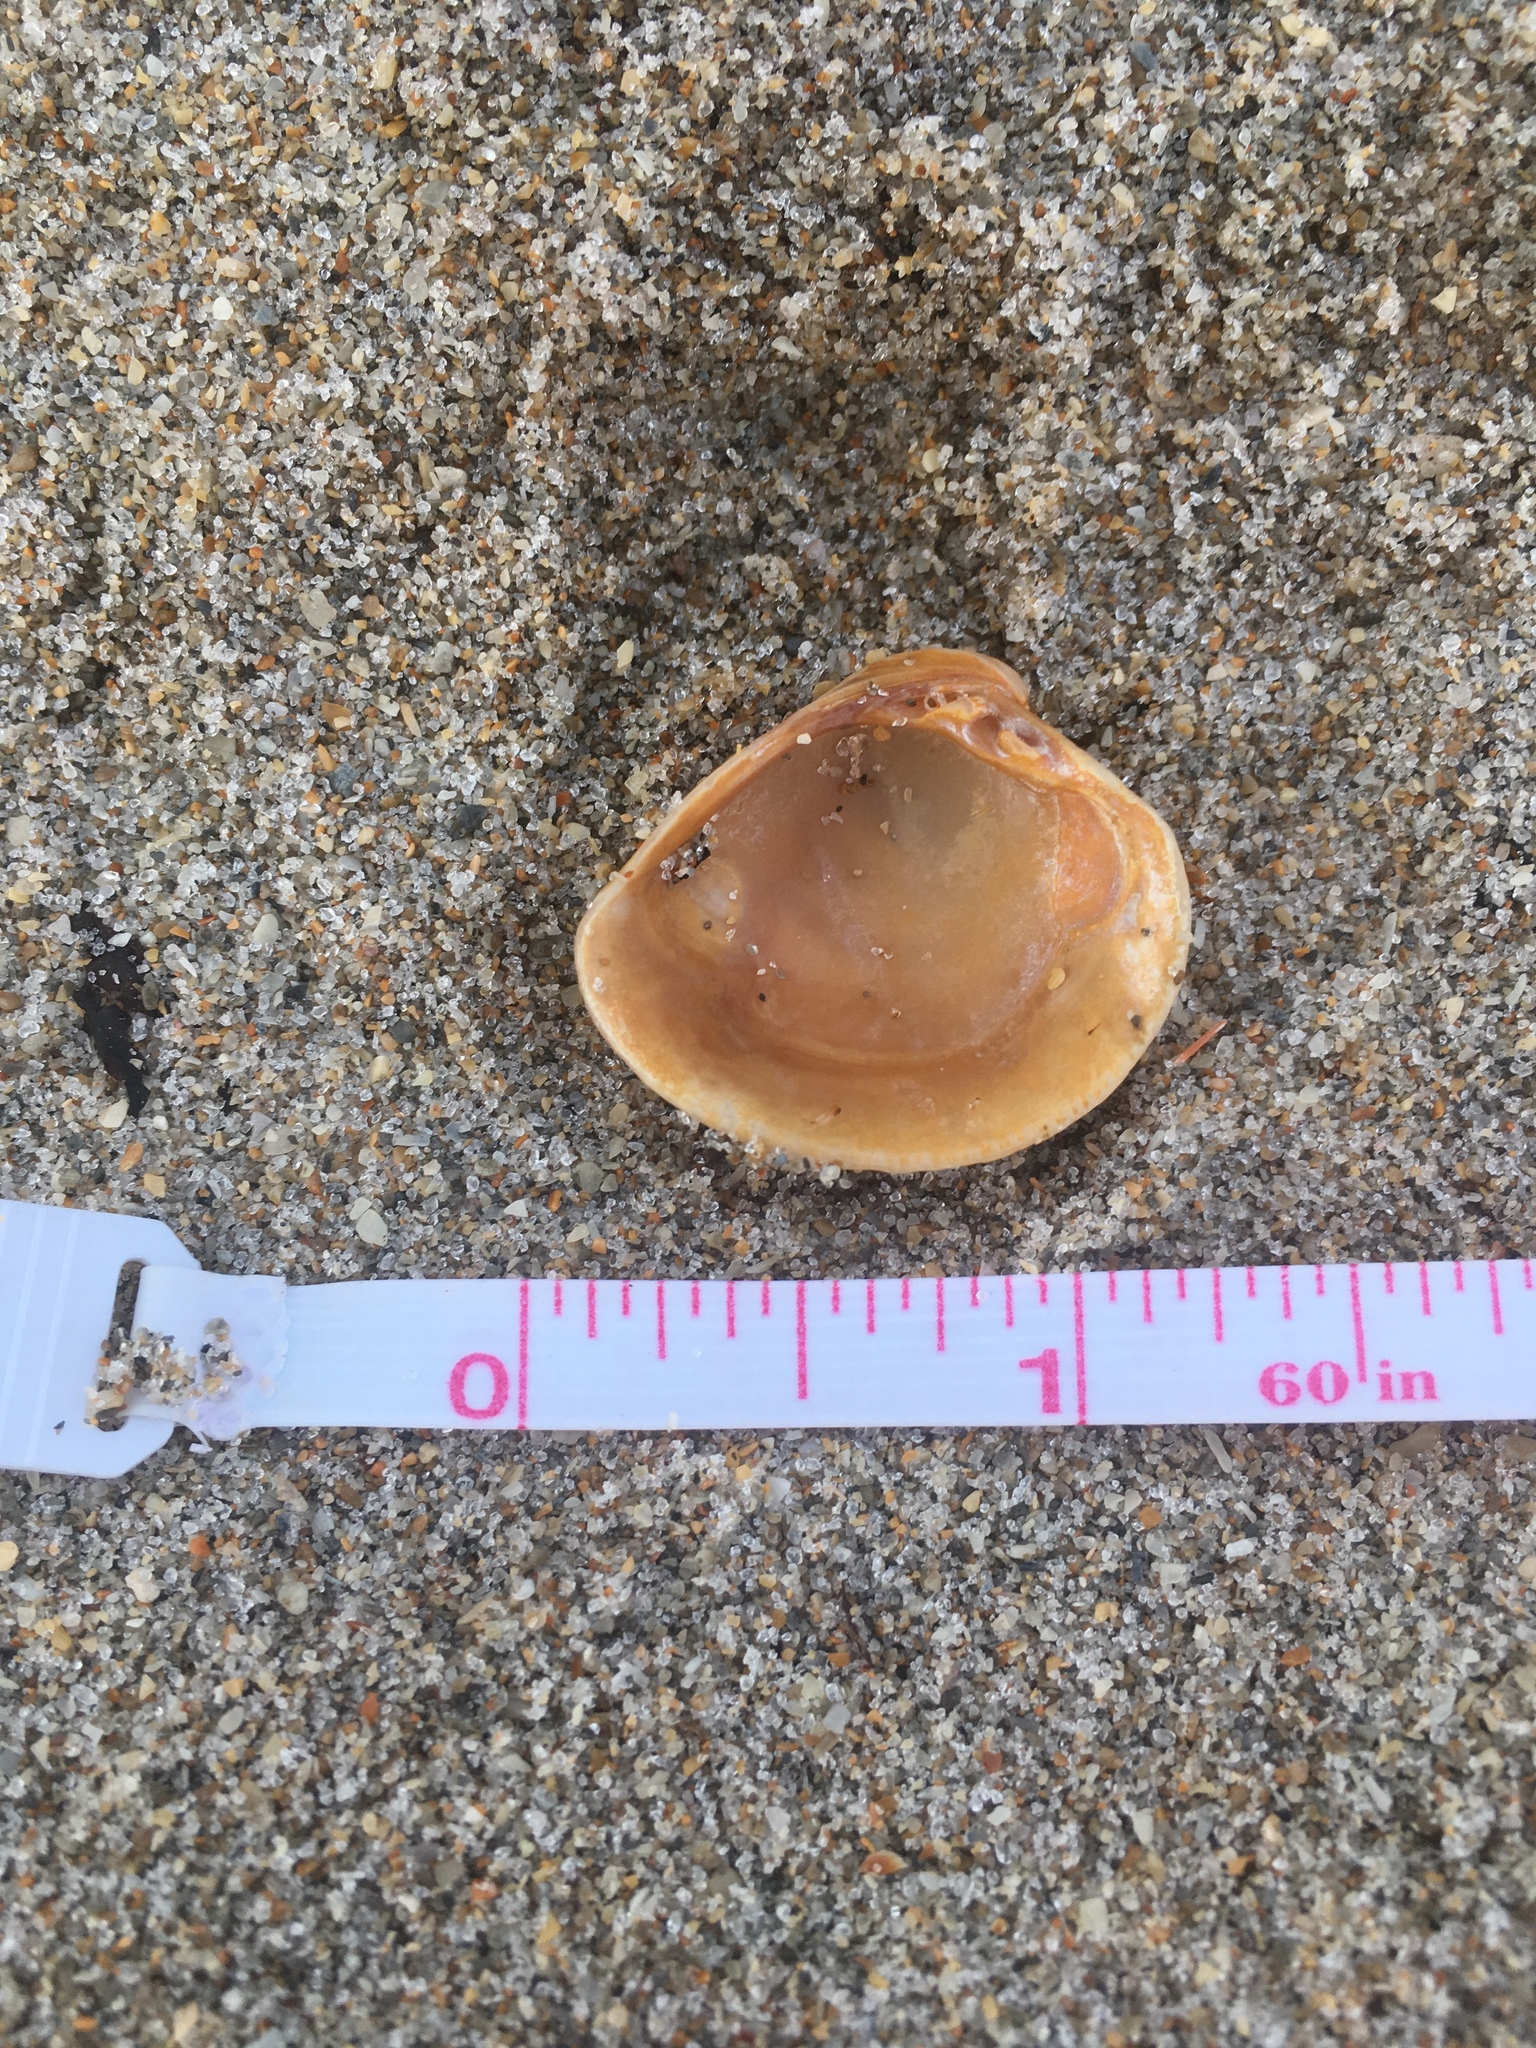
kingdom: Animalia
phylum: Mollusca
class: Bivalvia
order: Venerida
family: Veneridae
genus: Chione
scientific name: Chione elevata
